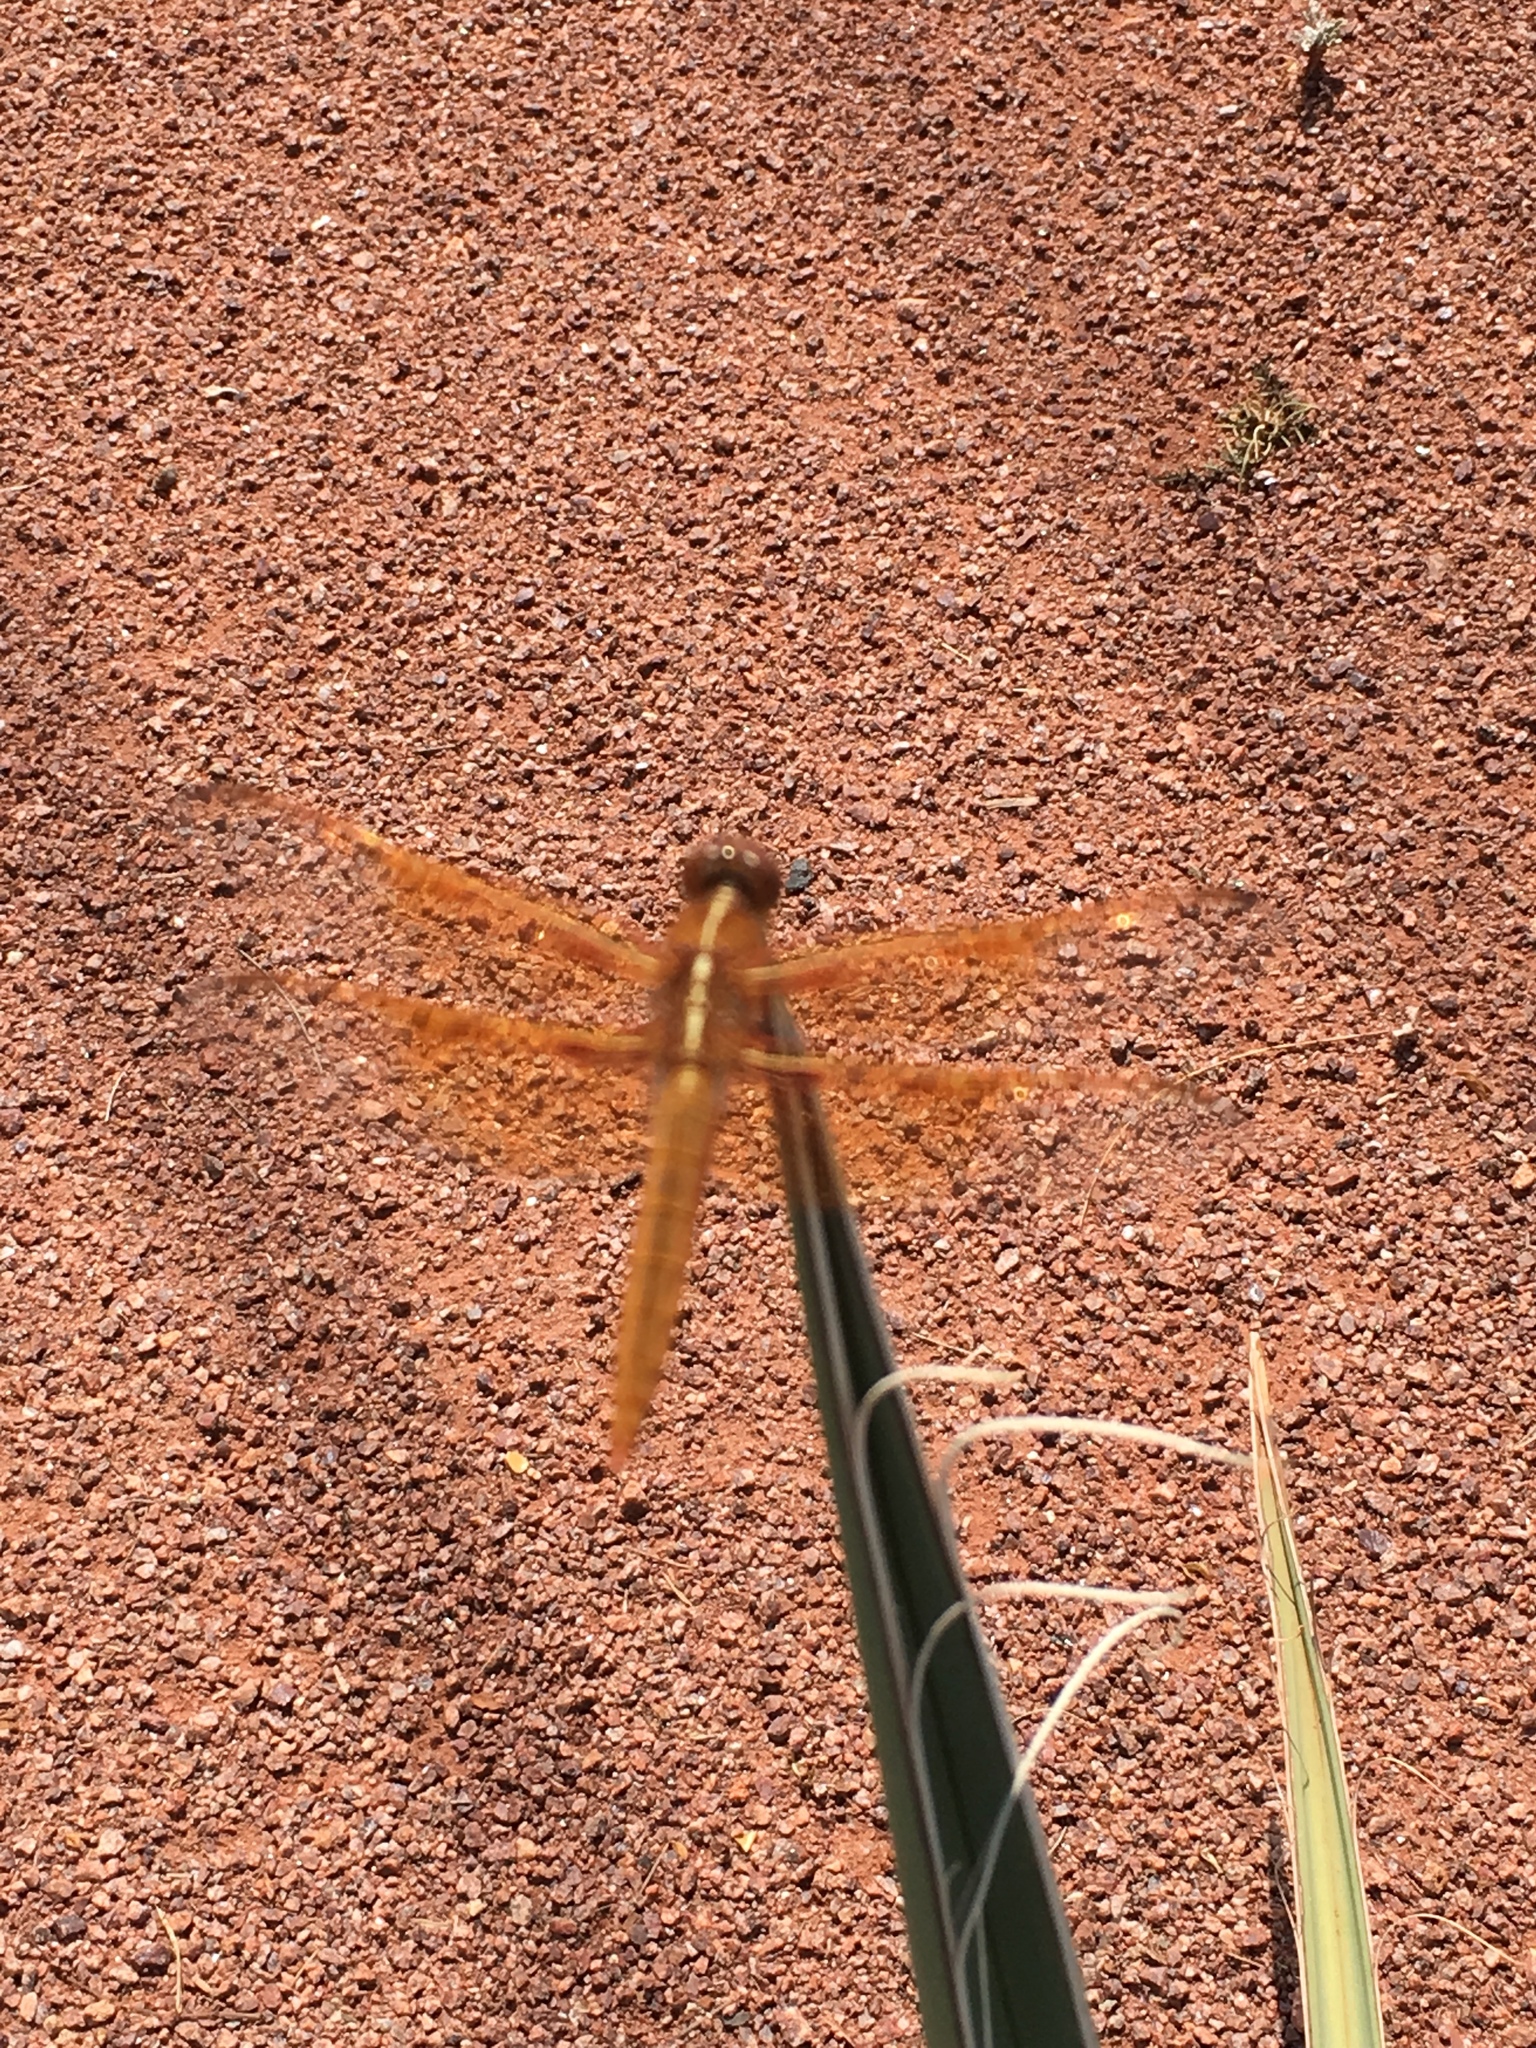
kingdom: Animalia
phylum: Arthropoda
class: Insecta
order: Odonata
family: Libellulidae
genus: Libellula
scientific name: Libellula saturata
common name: Flame skimmer
